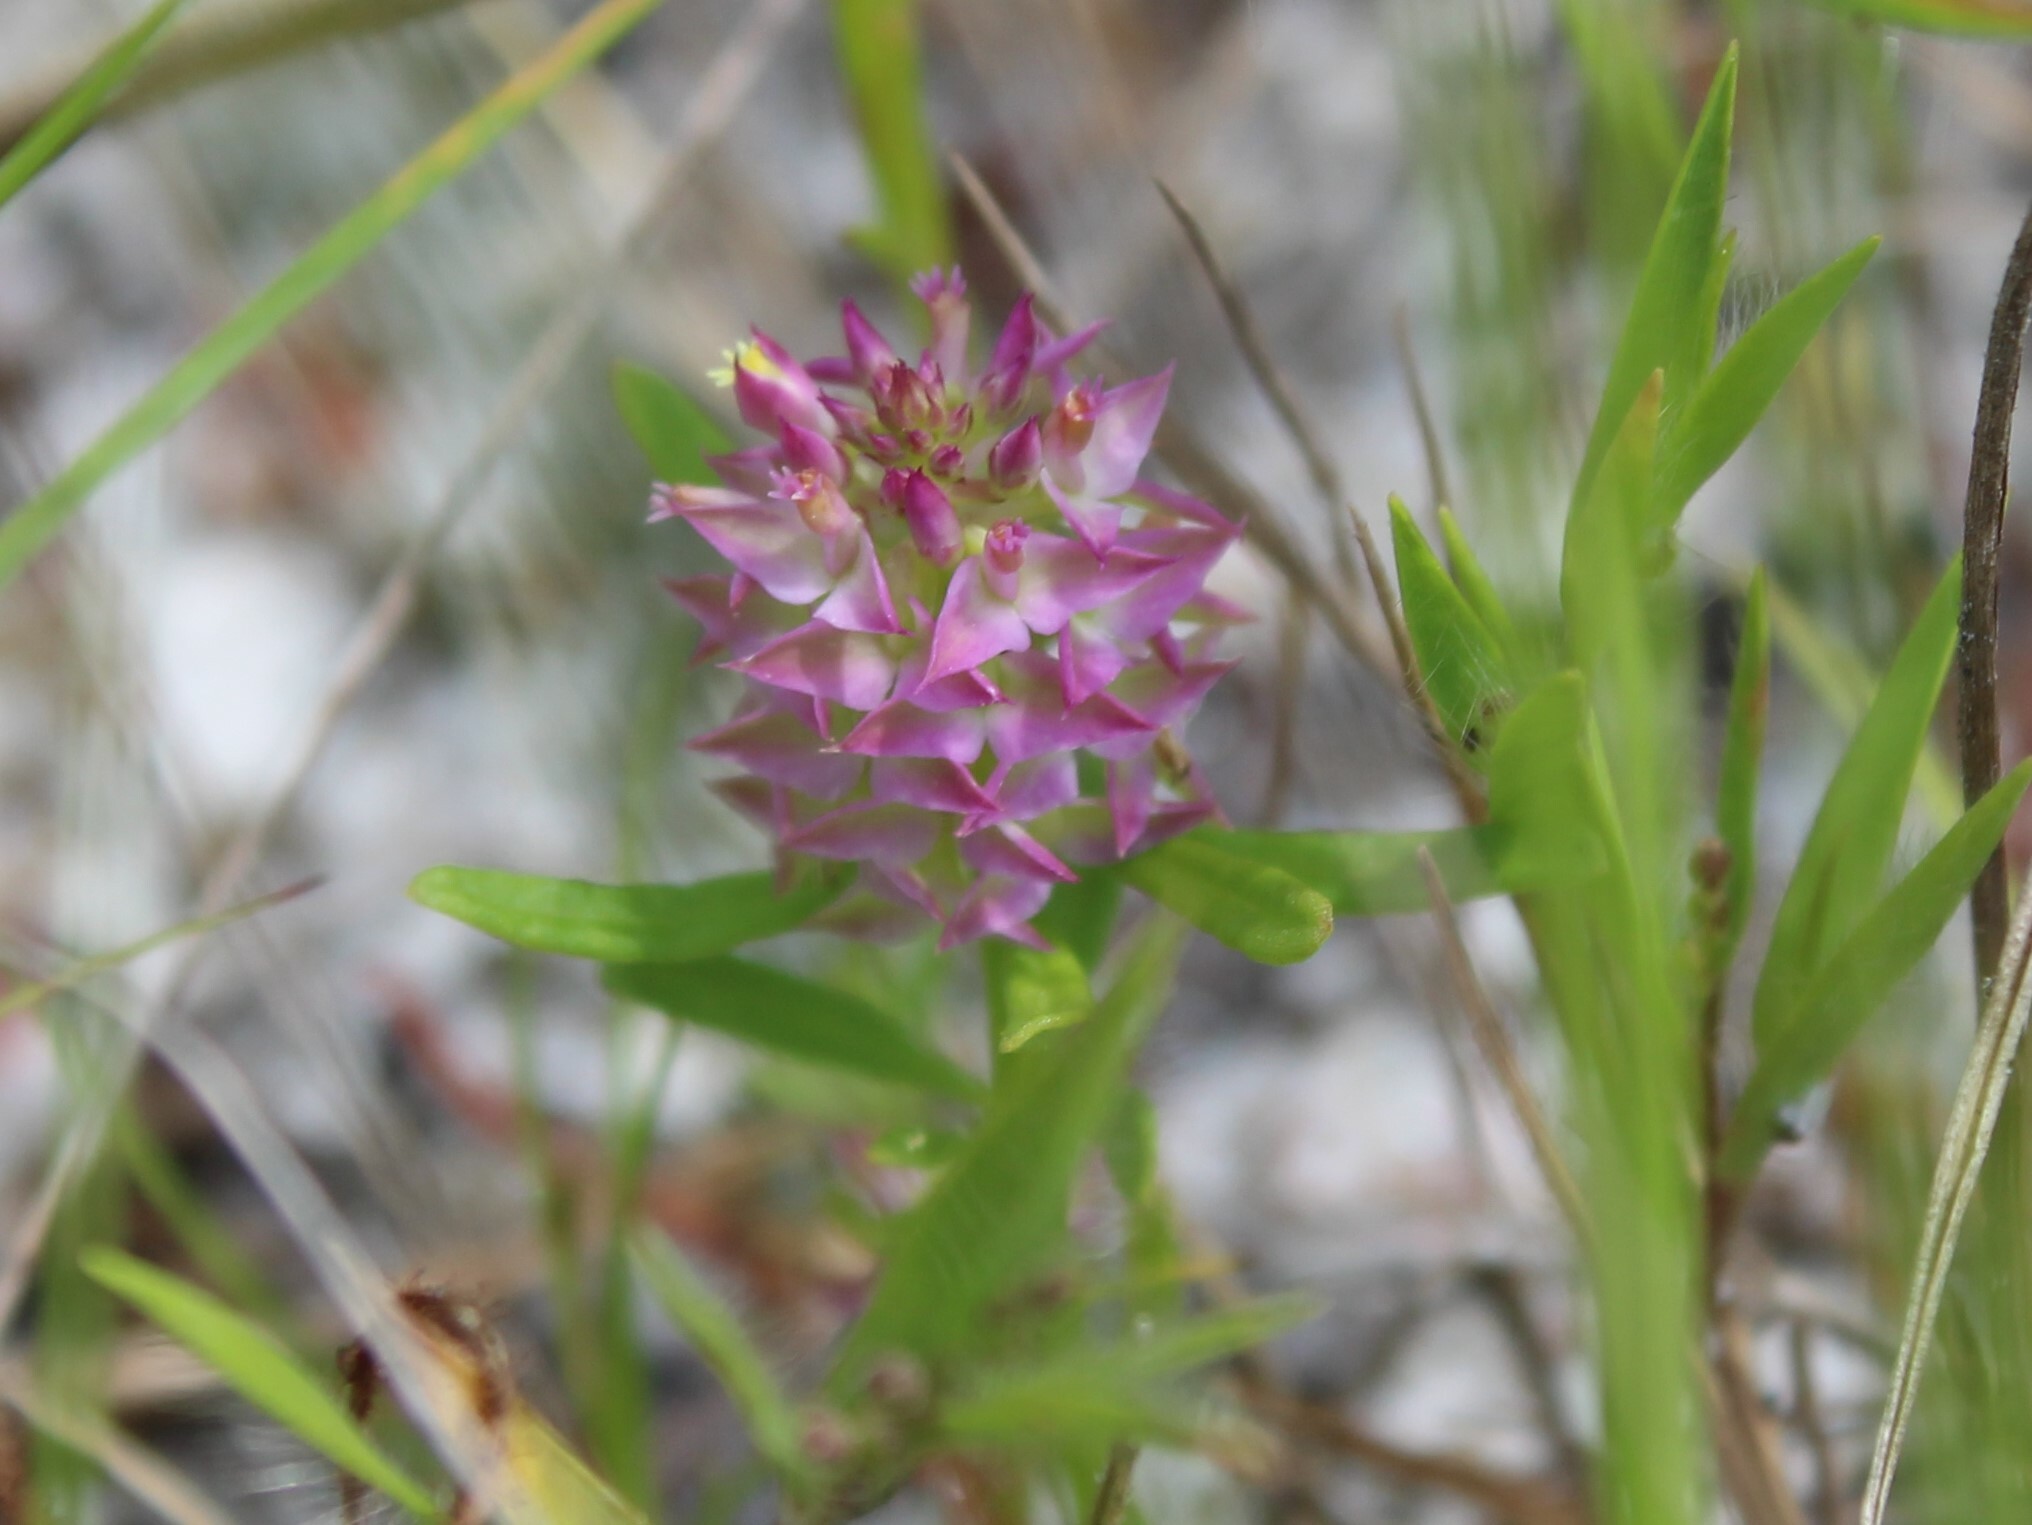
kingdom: Plantae
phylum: Tracheophyta
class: Magnoliopsida
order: Fabales
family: Polygalaceae
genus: Polygala
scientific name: Polygala cruciata
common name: Drumheads
